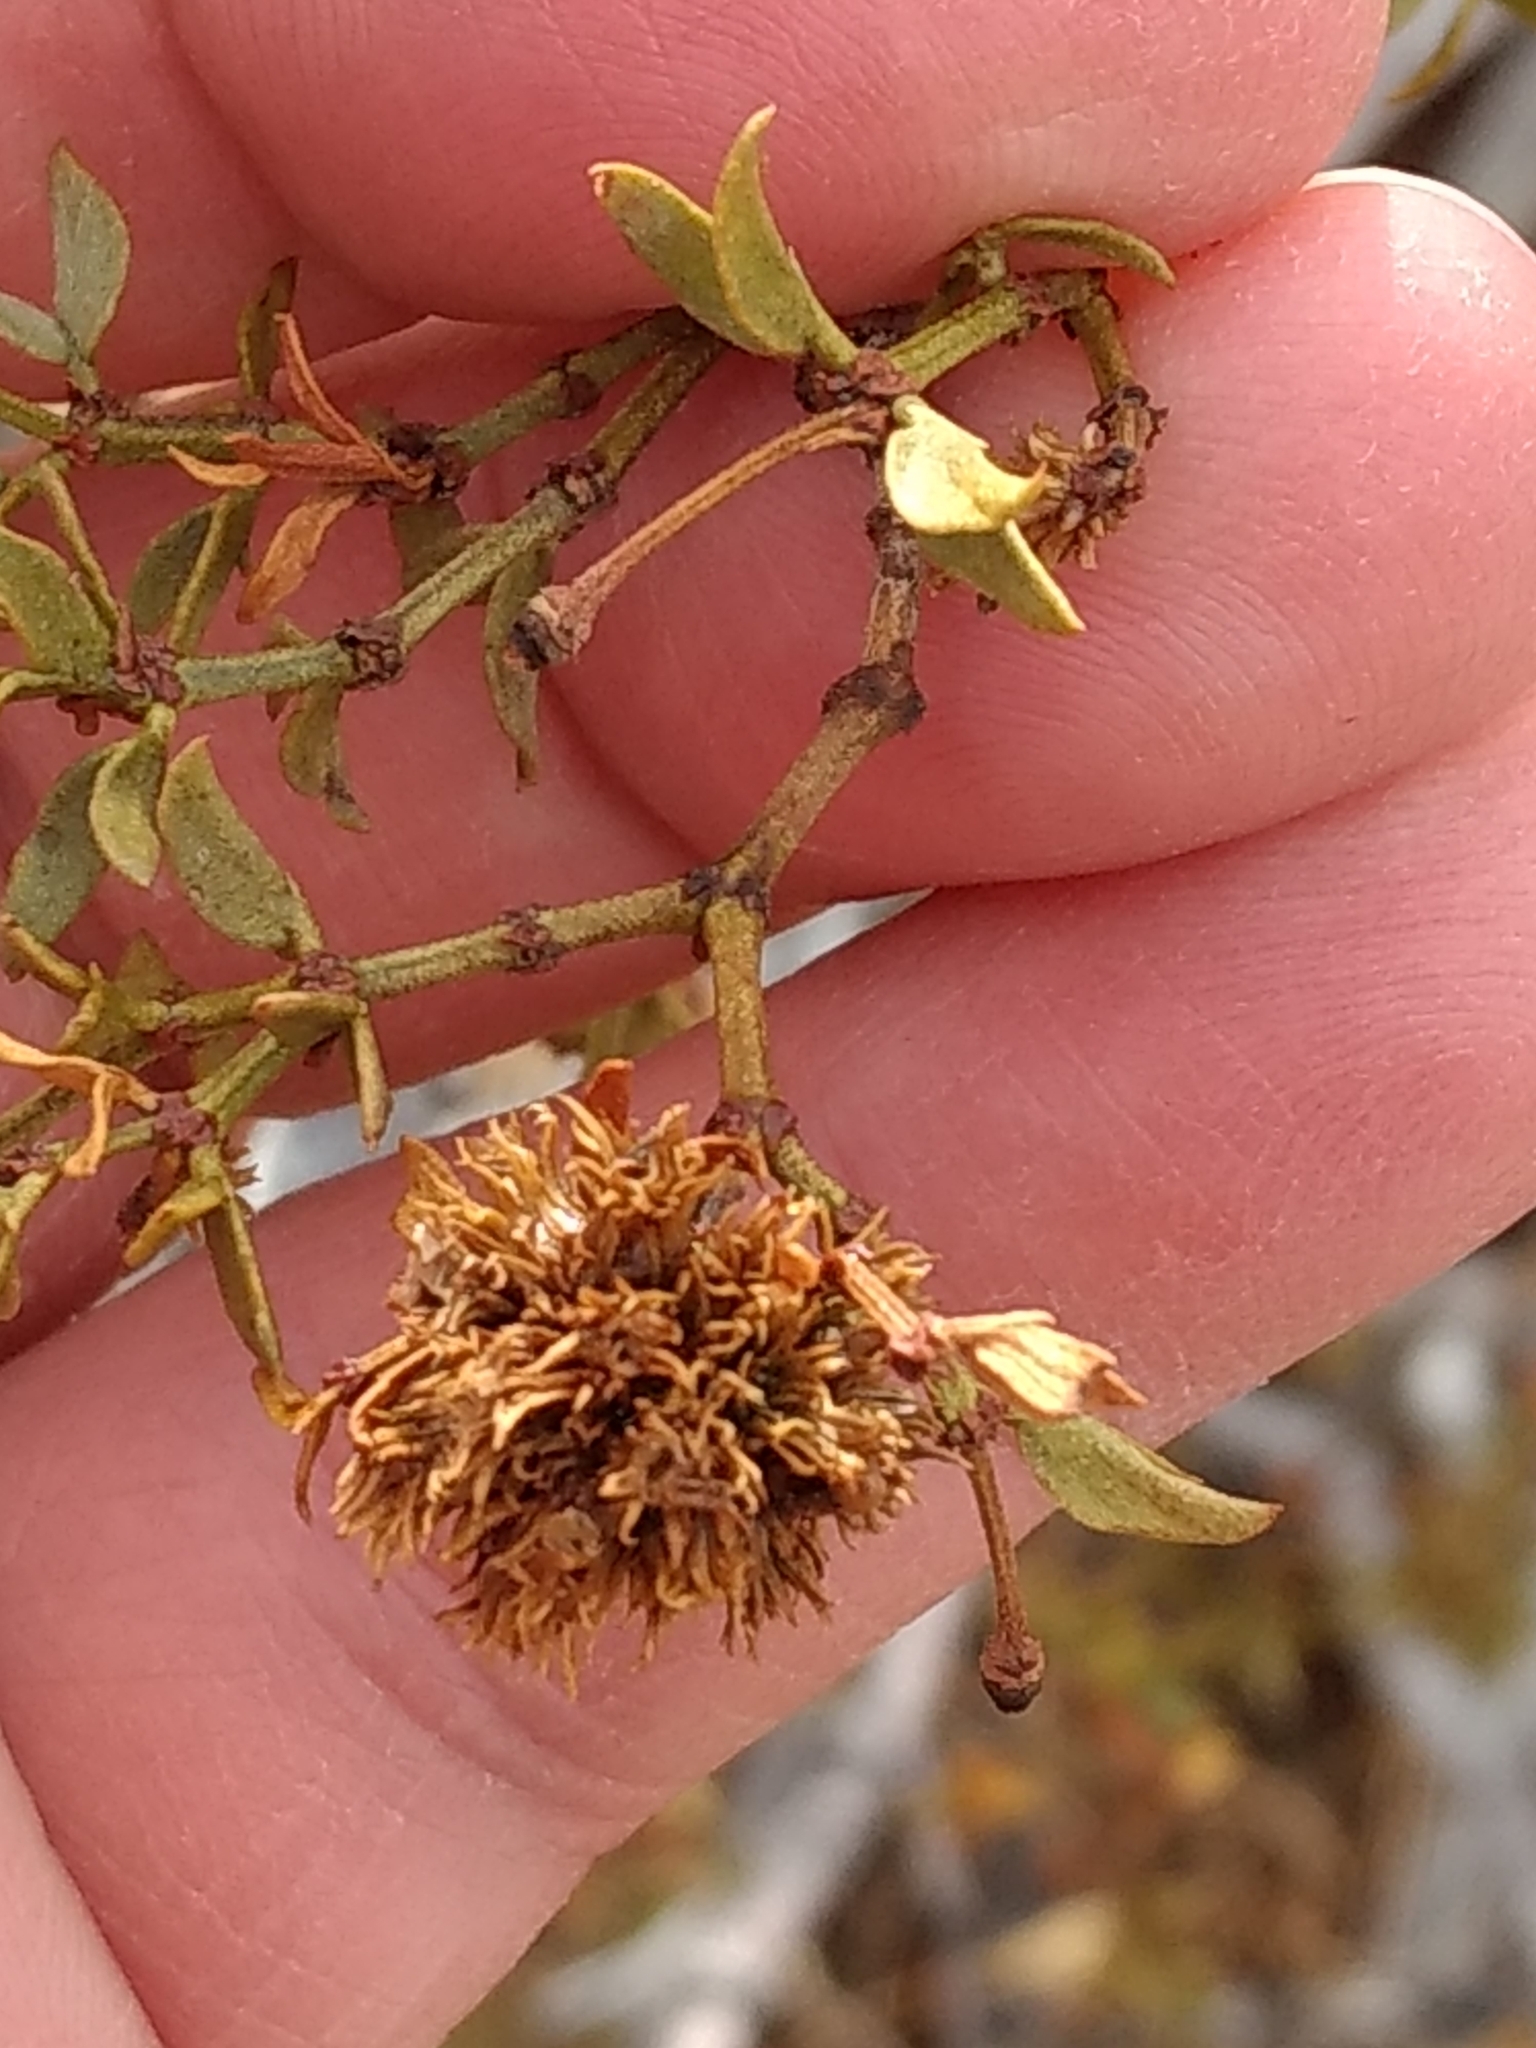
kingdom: Animalia
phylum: Arthropoda
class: Insecta
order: Diptera
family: Cecidomyiidae
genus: Asphondylia
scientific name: Asphondylia auripila
